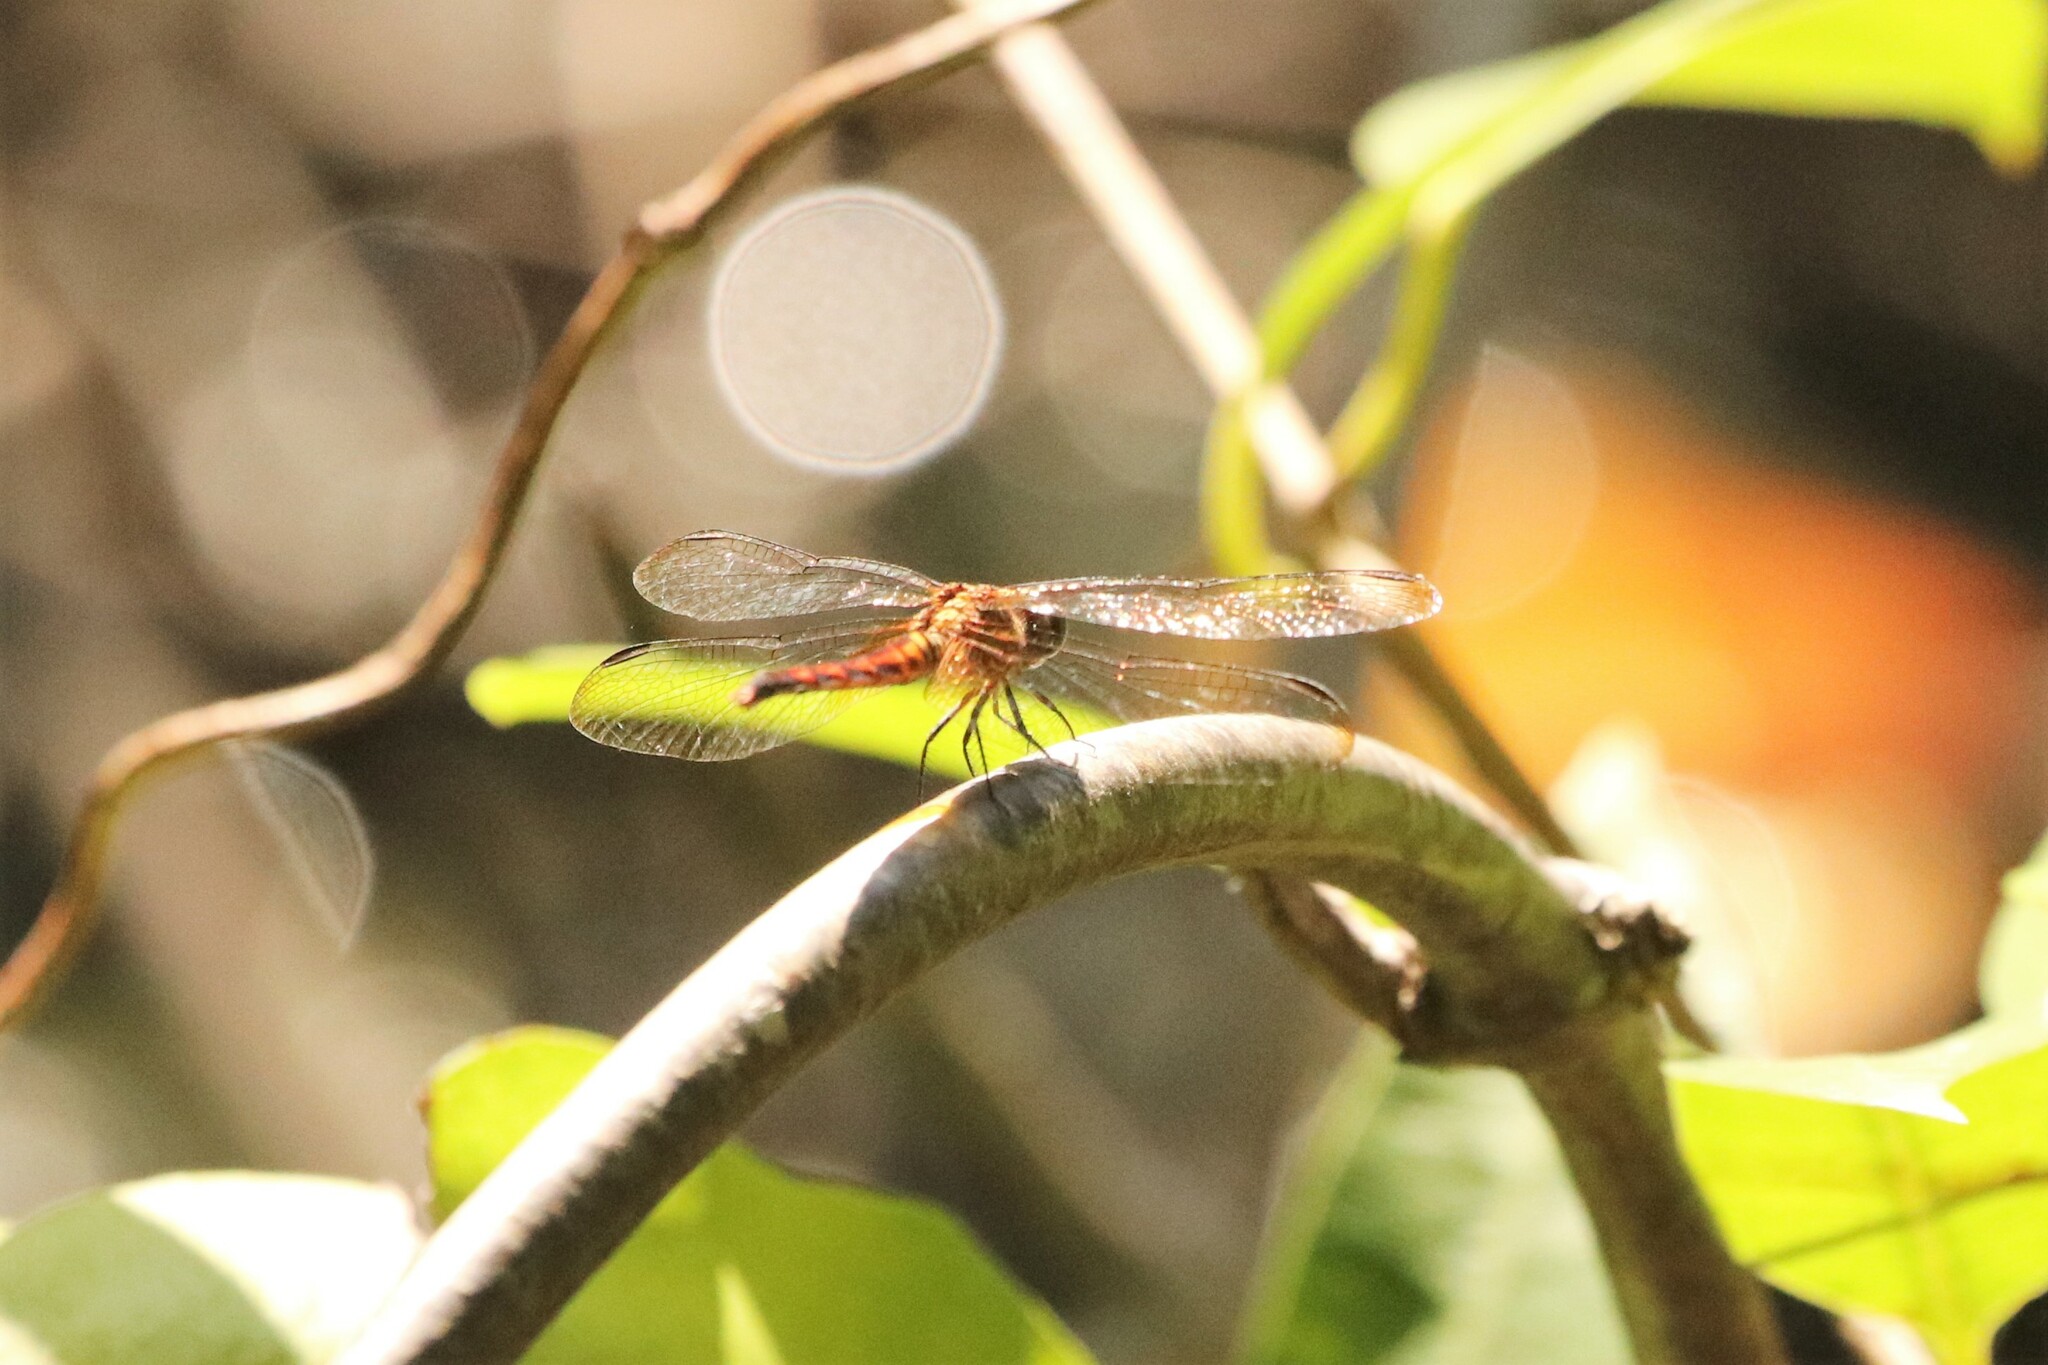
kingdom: Animalia
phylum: Arthropoda
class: Insecta
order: Odonata
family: Libellulidae
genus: Erythrodiplax
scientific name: Erythrodiplax fervida
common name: Red-mantled dragonlet
